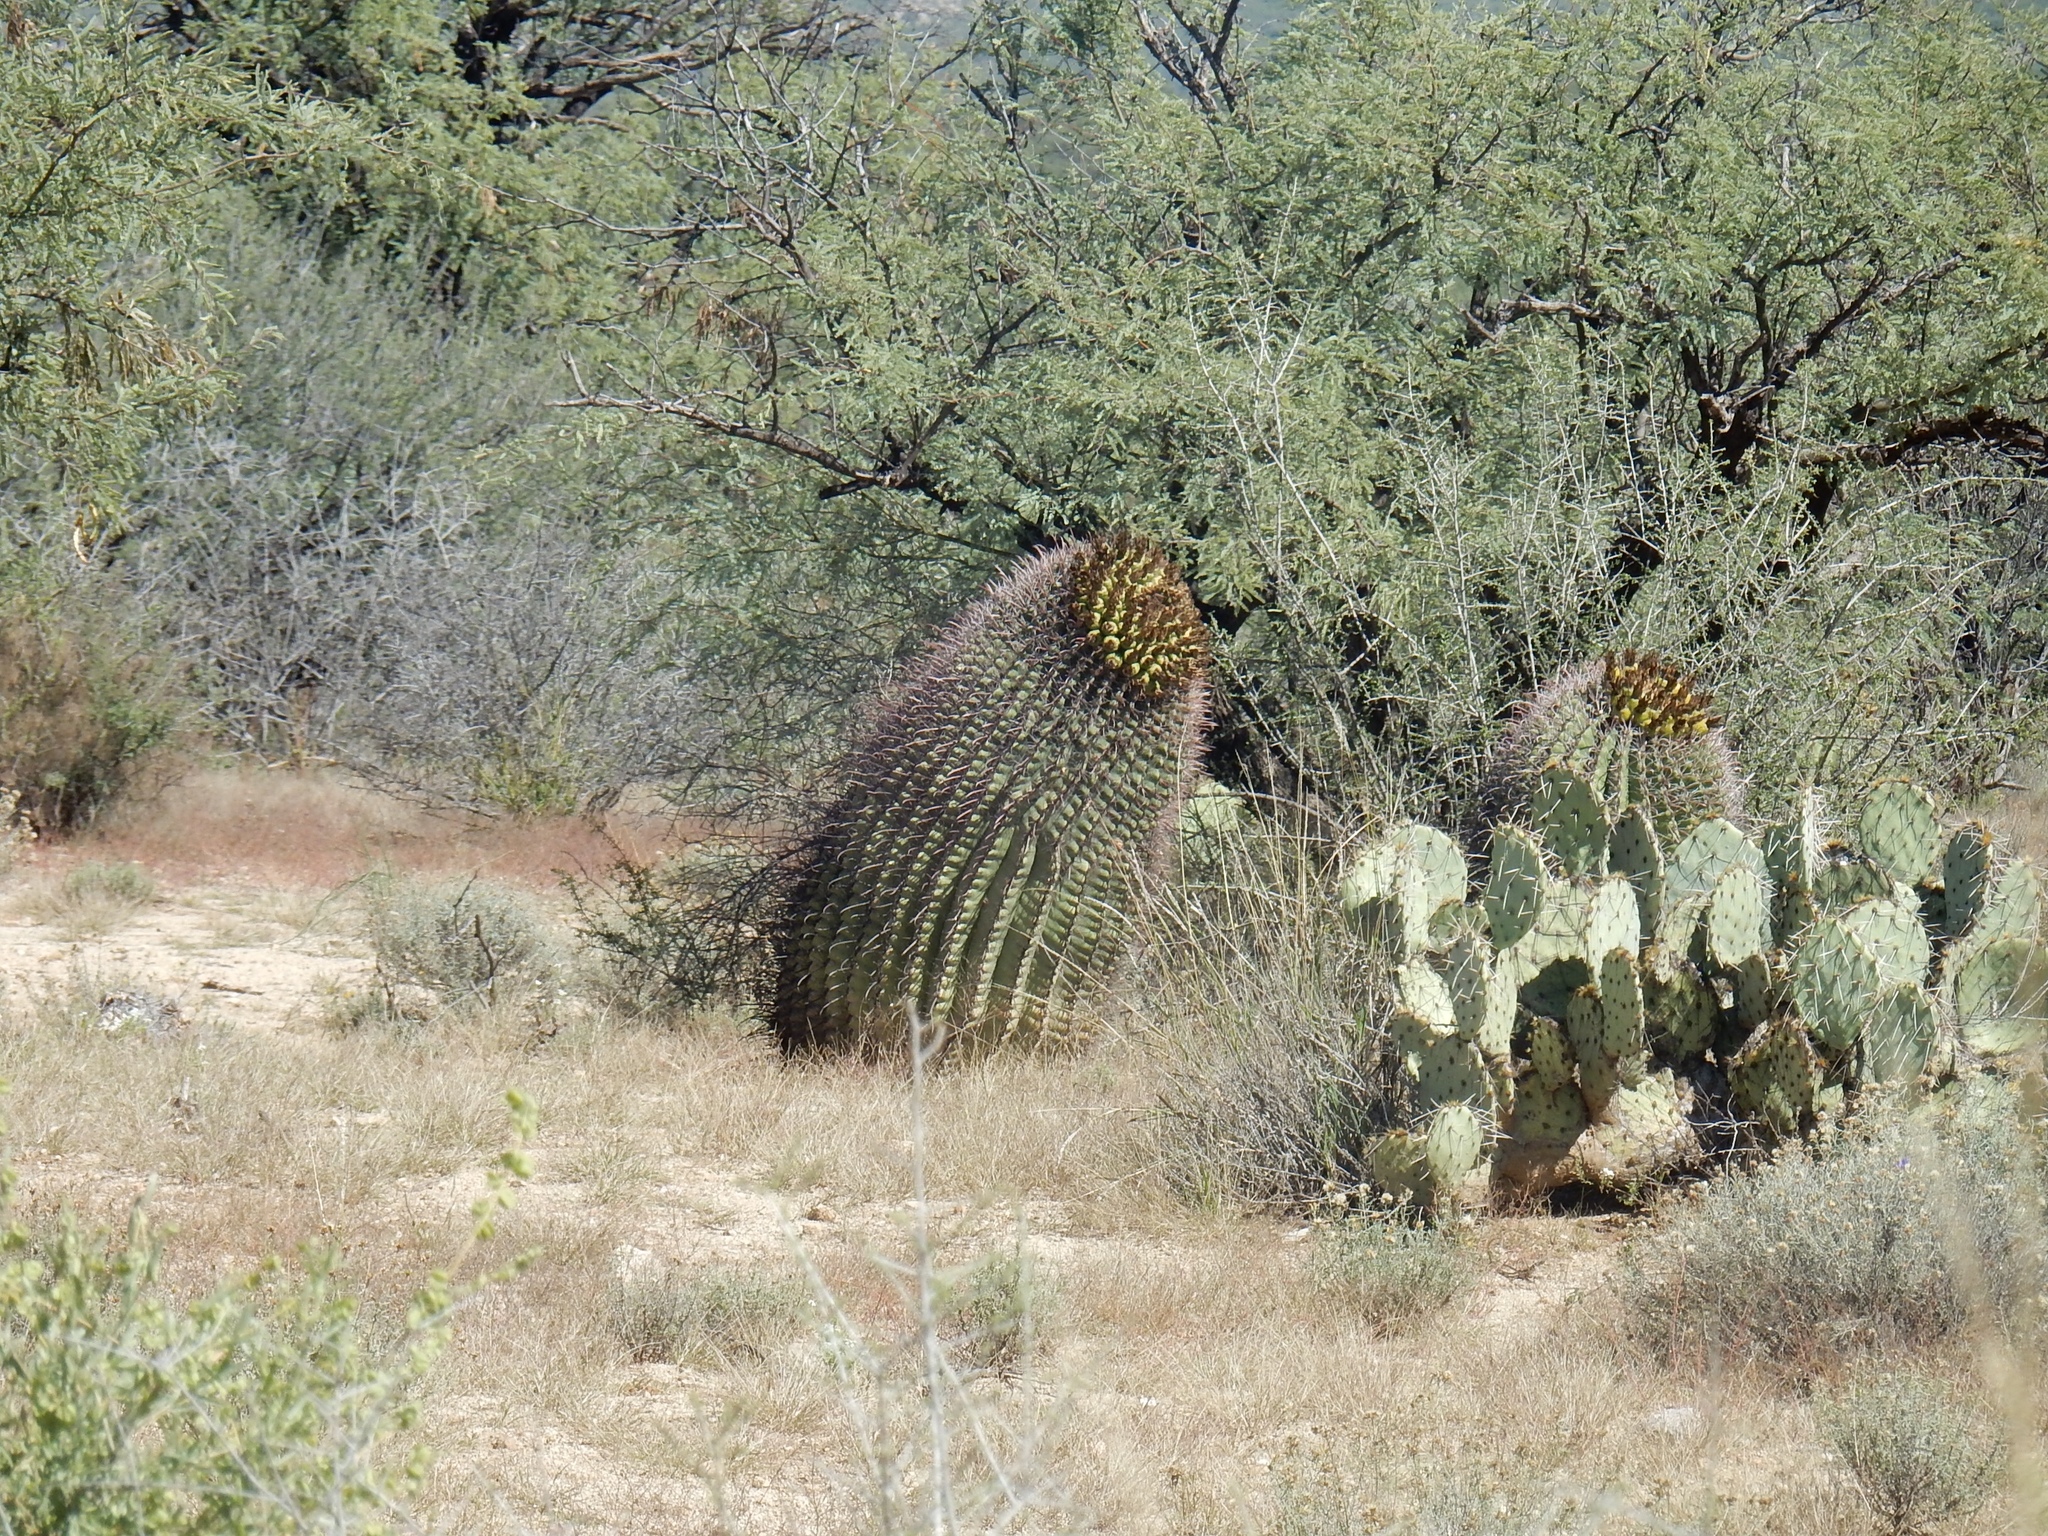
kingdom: Plantae
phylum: Tracheophyta
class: Magnoliopsida
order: Caryophyllales
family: Cactaceae
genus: Ferocactus
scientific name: Ferocactus wislizeni
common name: Candy barrel cactus
